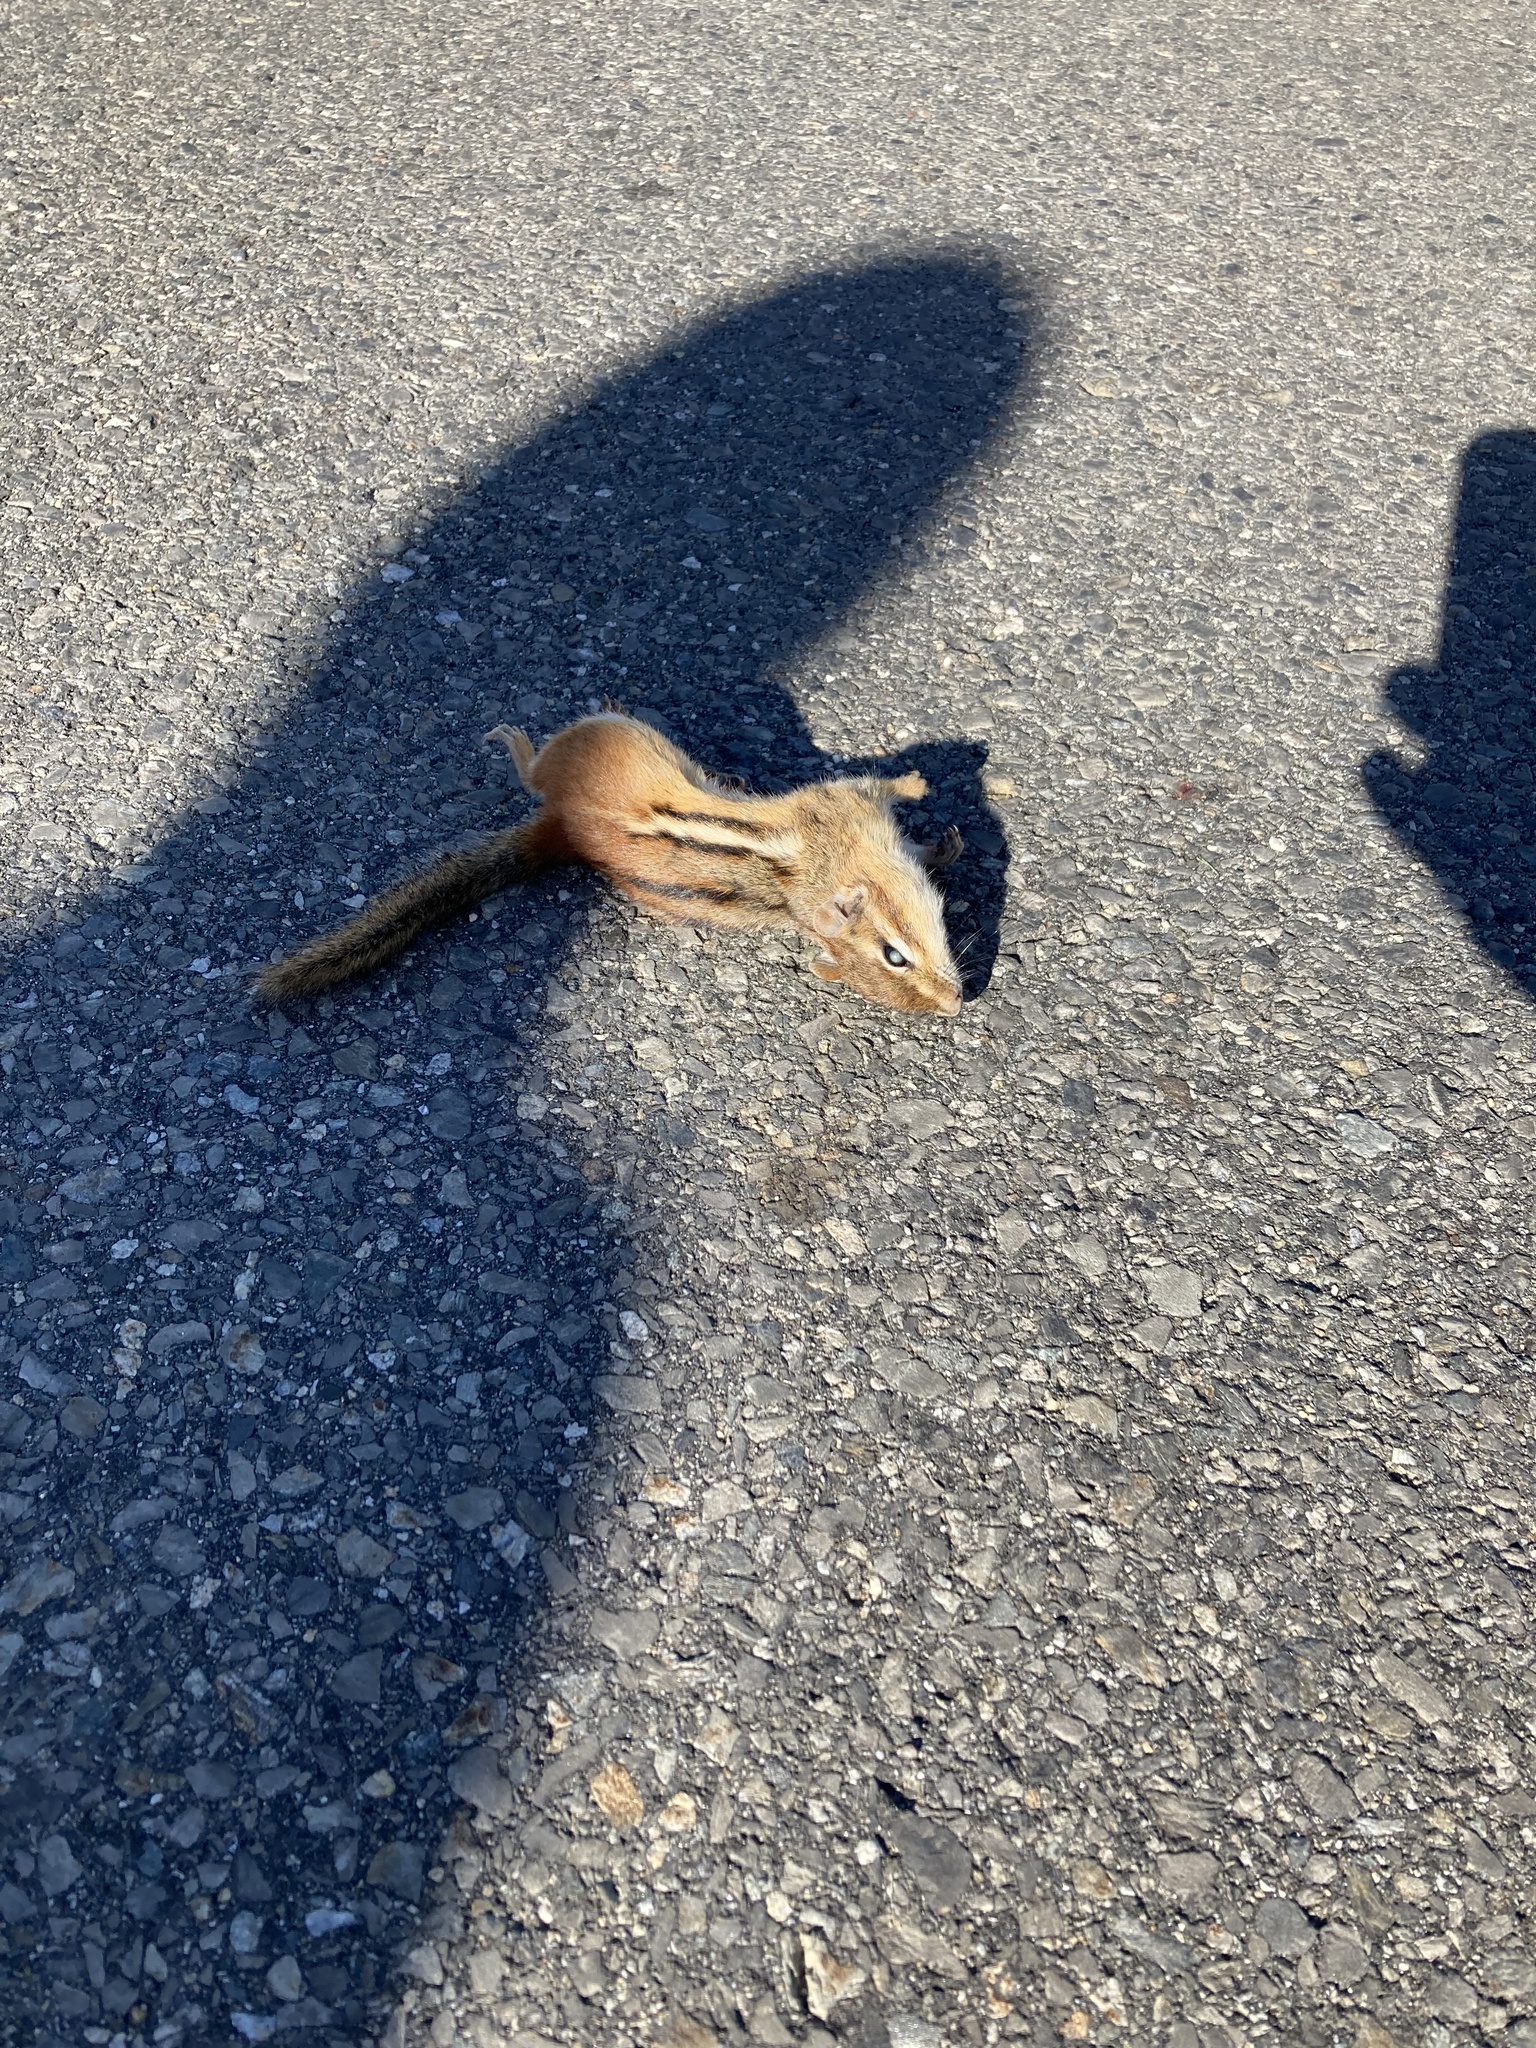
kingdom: Animalia
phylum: Chordata
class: Mammalia
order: Rodentia
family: Sciuridae
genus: Tamias
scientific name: Tamias striatus
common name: Eastern chipmunk
